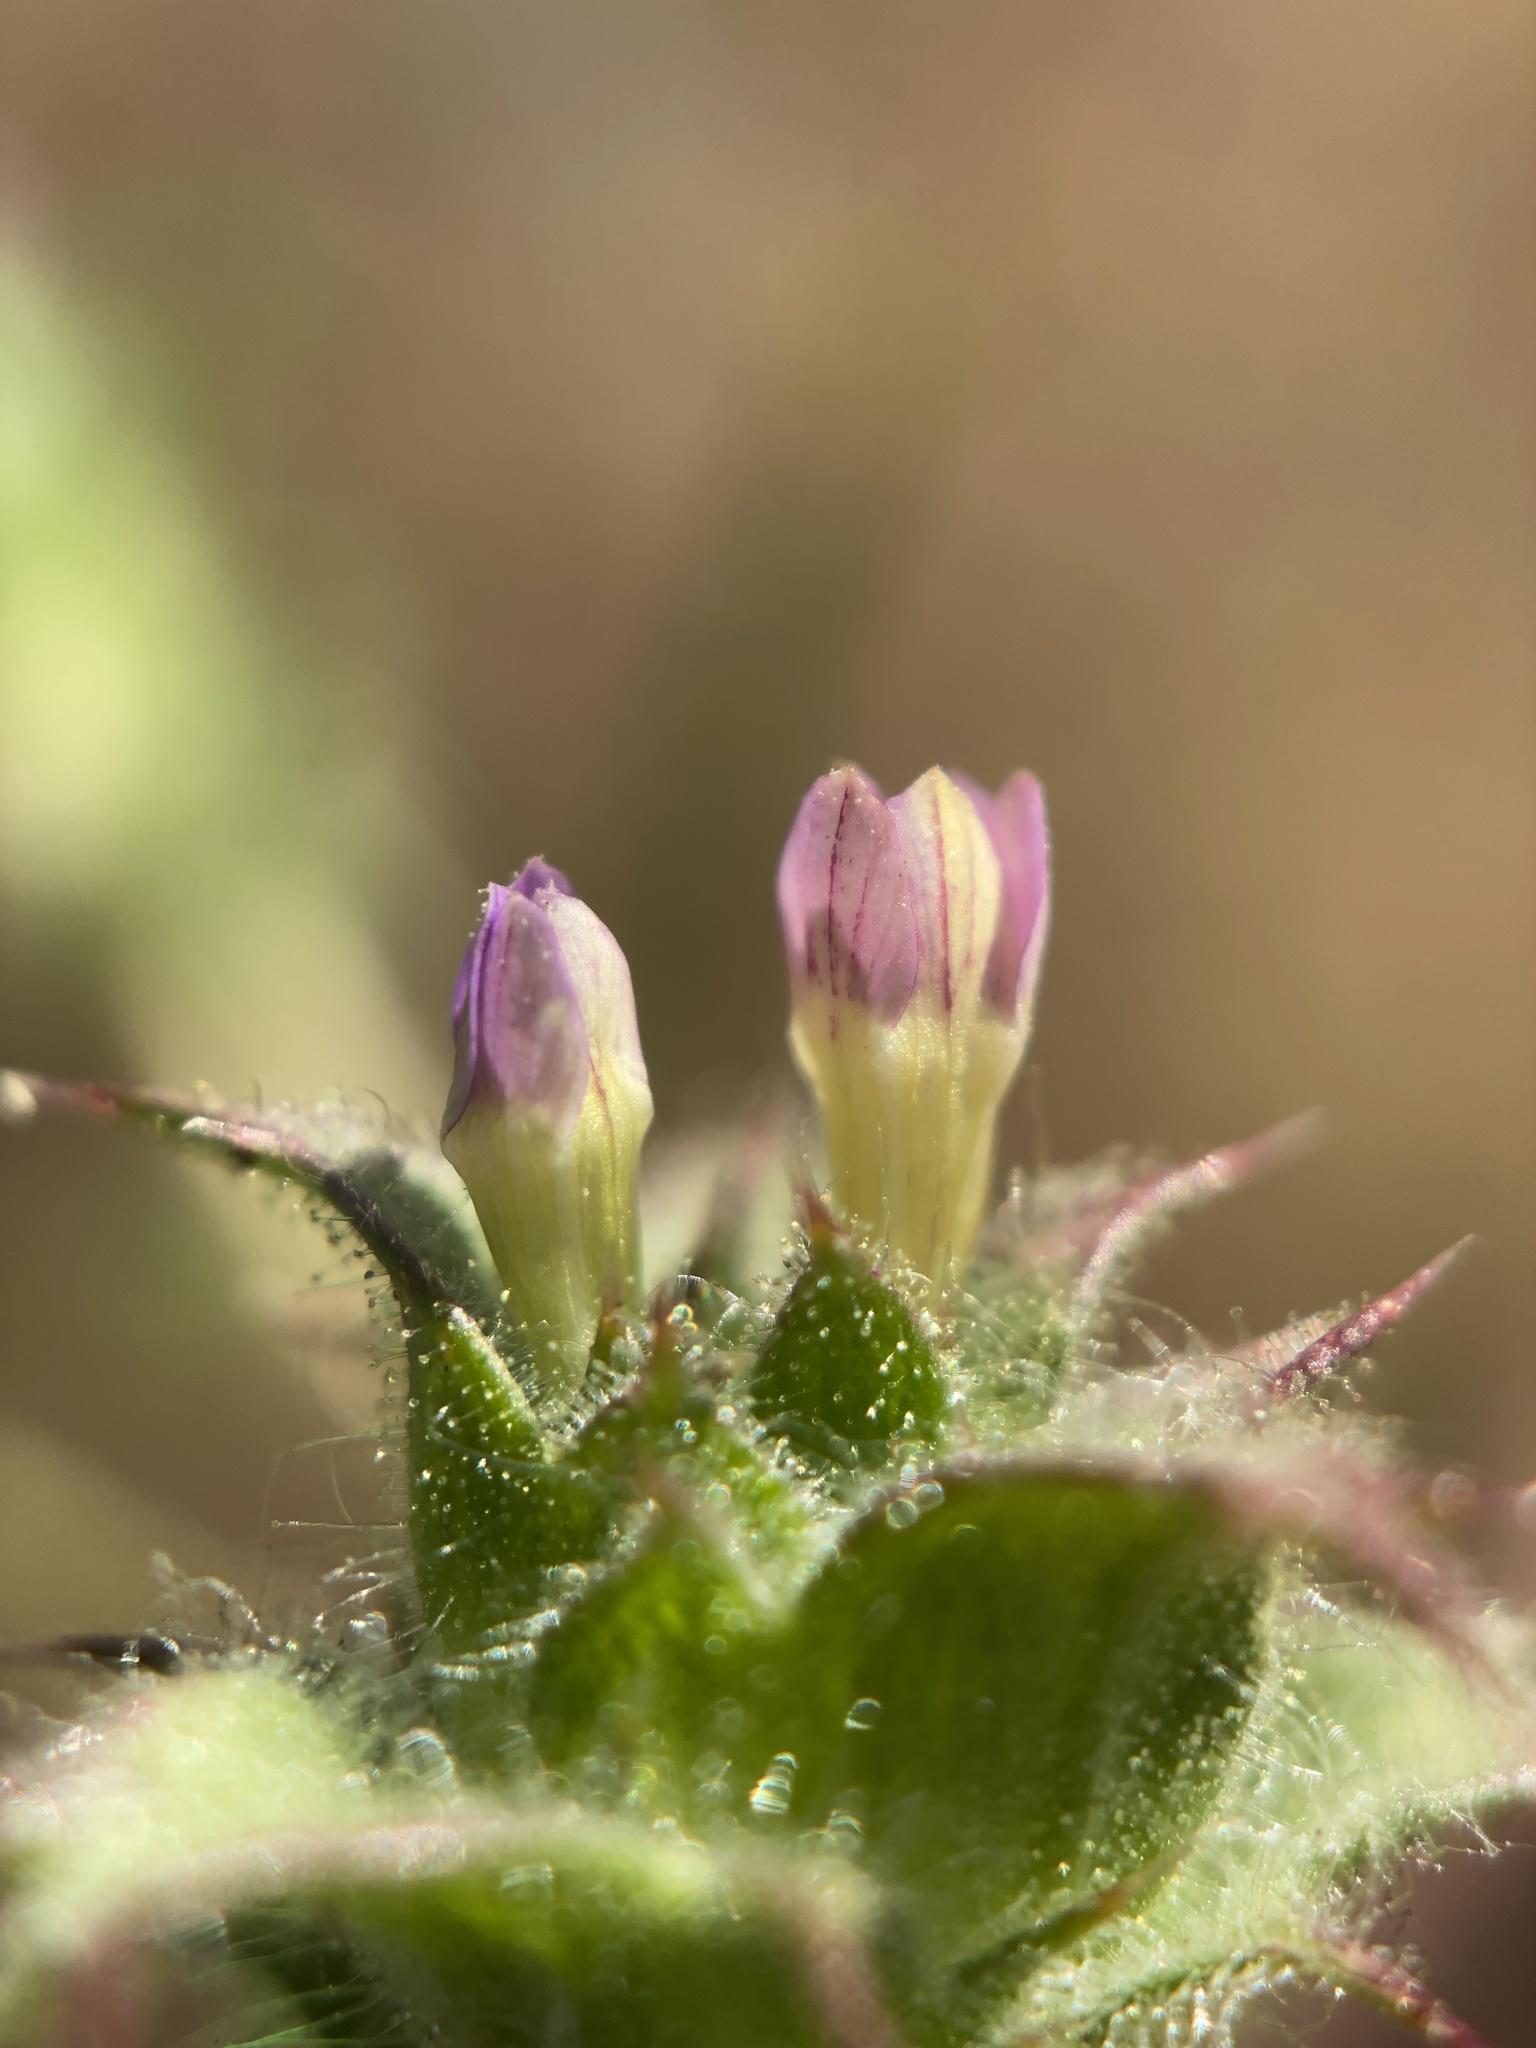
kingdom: Plantae
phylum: Tracheophyta
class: Magnoliopsida
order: Ericales
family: Polemoniaceae
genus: Navarretia
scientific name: Navarretia atractyloides
